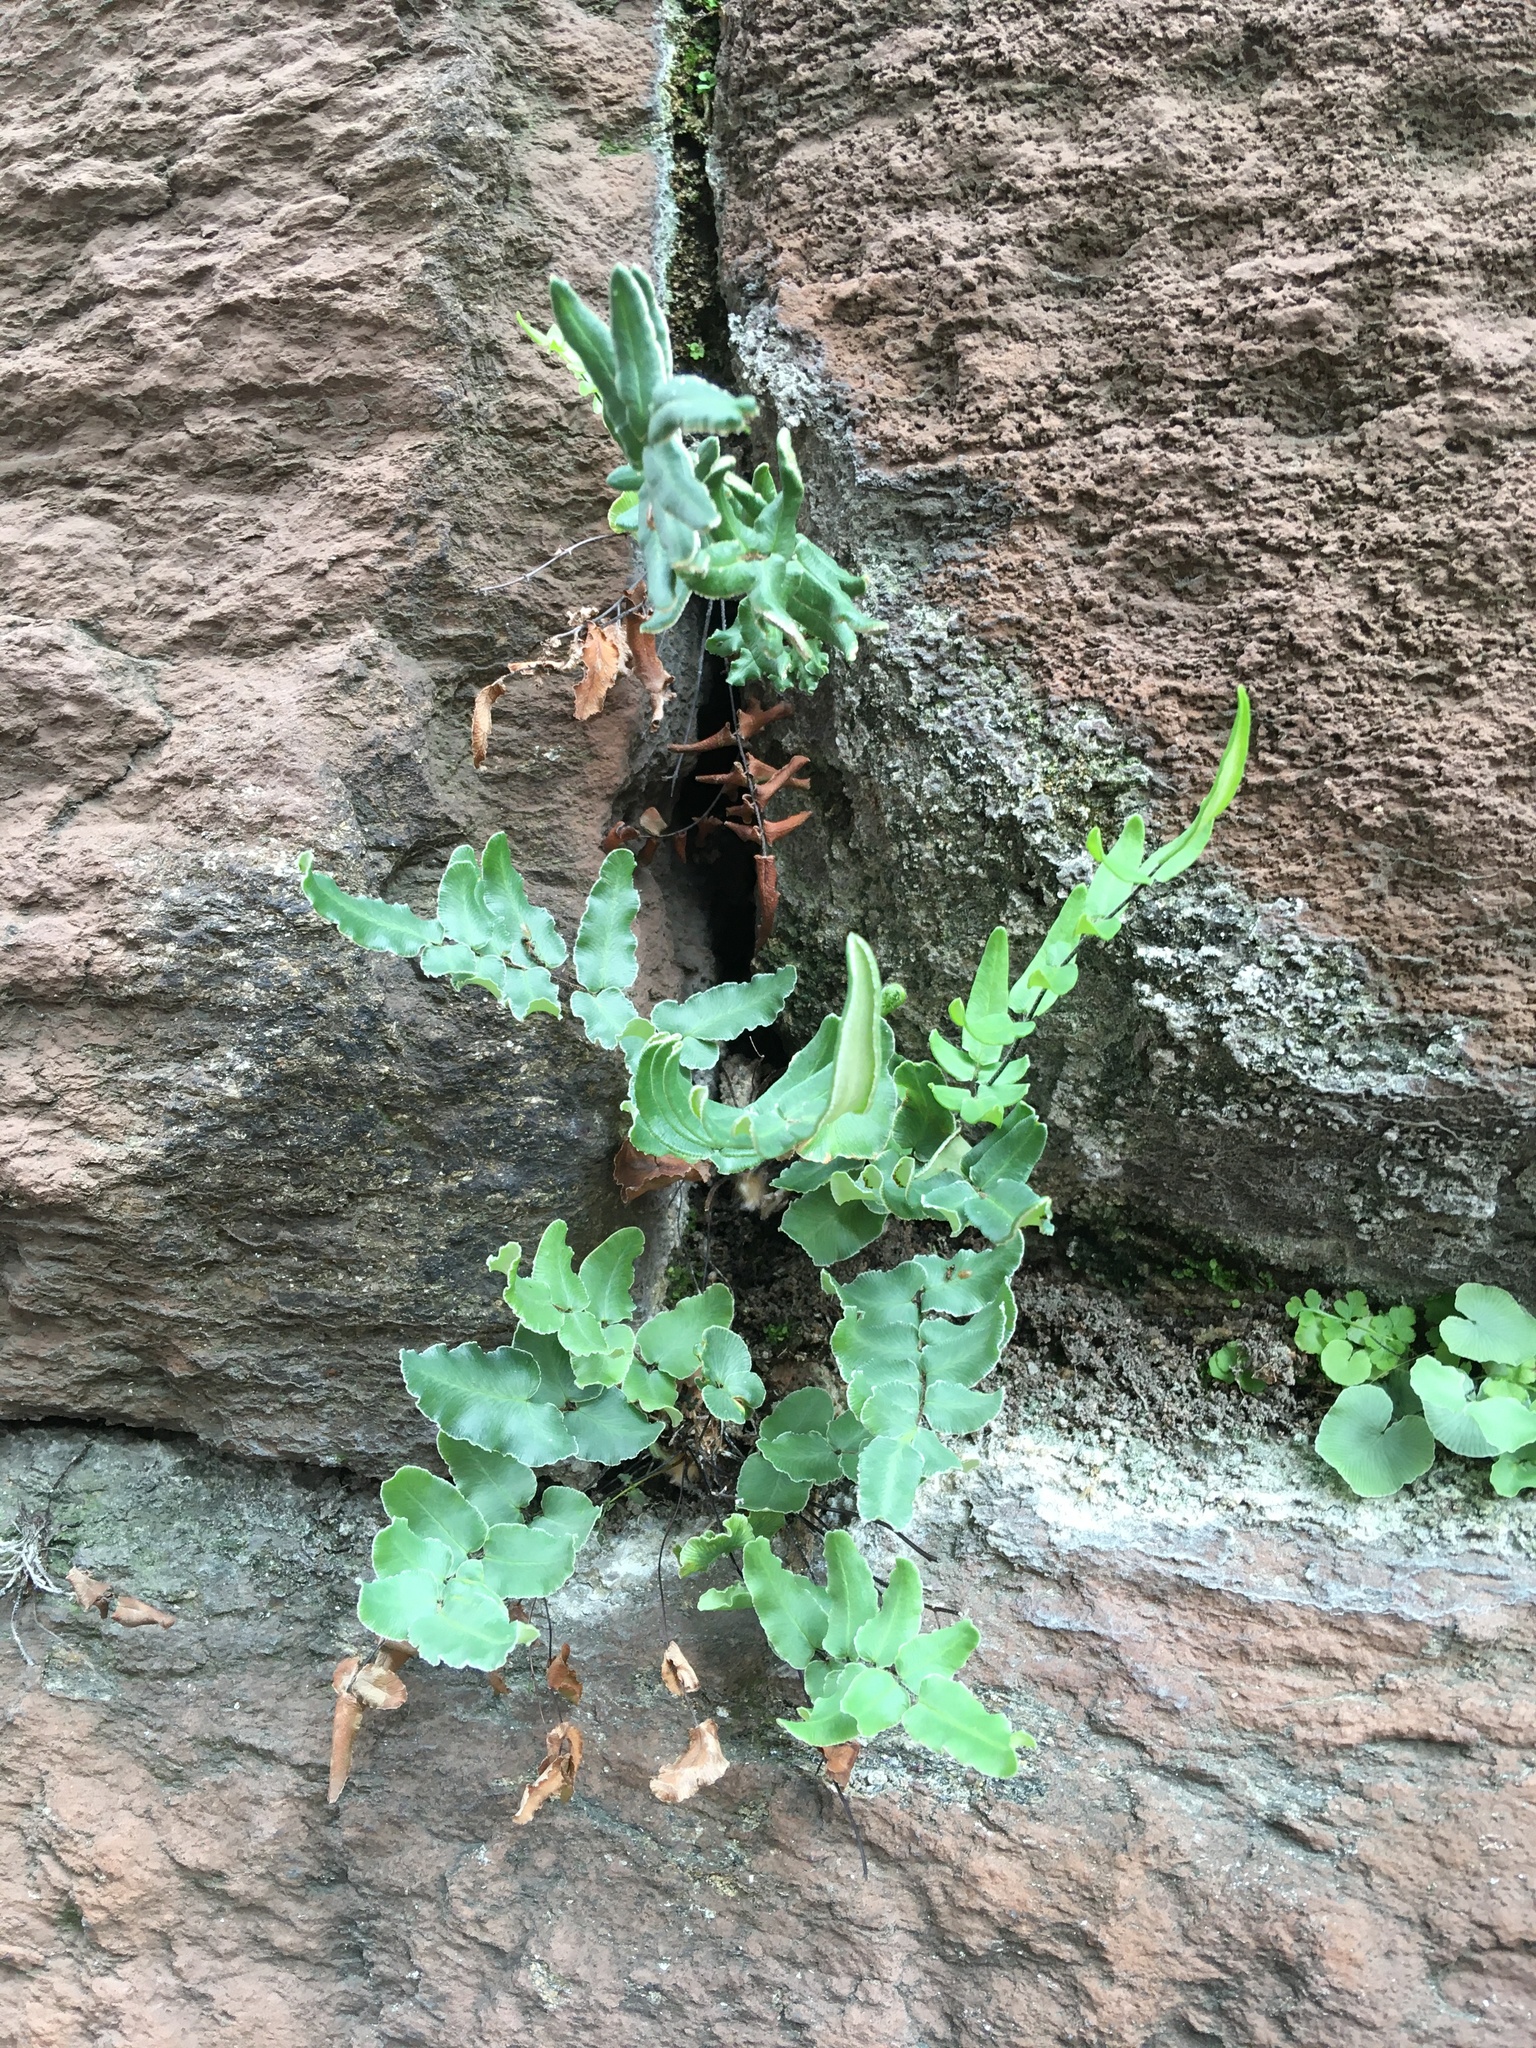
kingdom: Plantae
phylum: Tracheophyta
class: Polypodiopsida
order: Polypodiales
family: Pteridaceae
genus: Pellaea
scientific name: Pellaea atropurpurea
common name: Hairy cliffbrake
